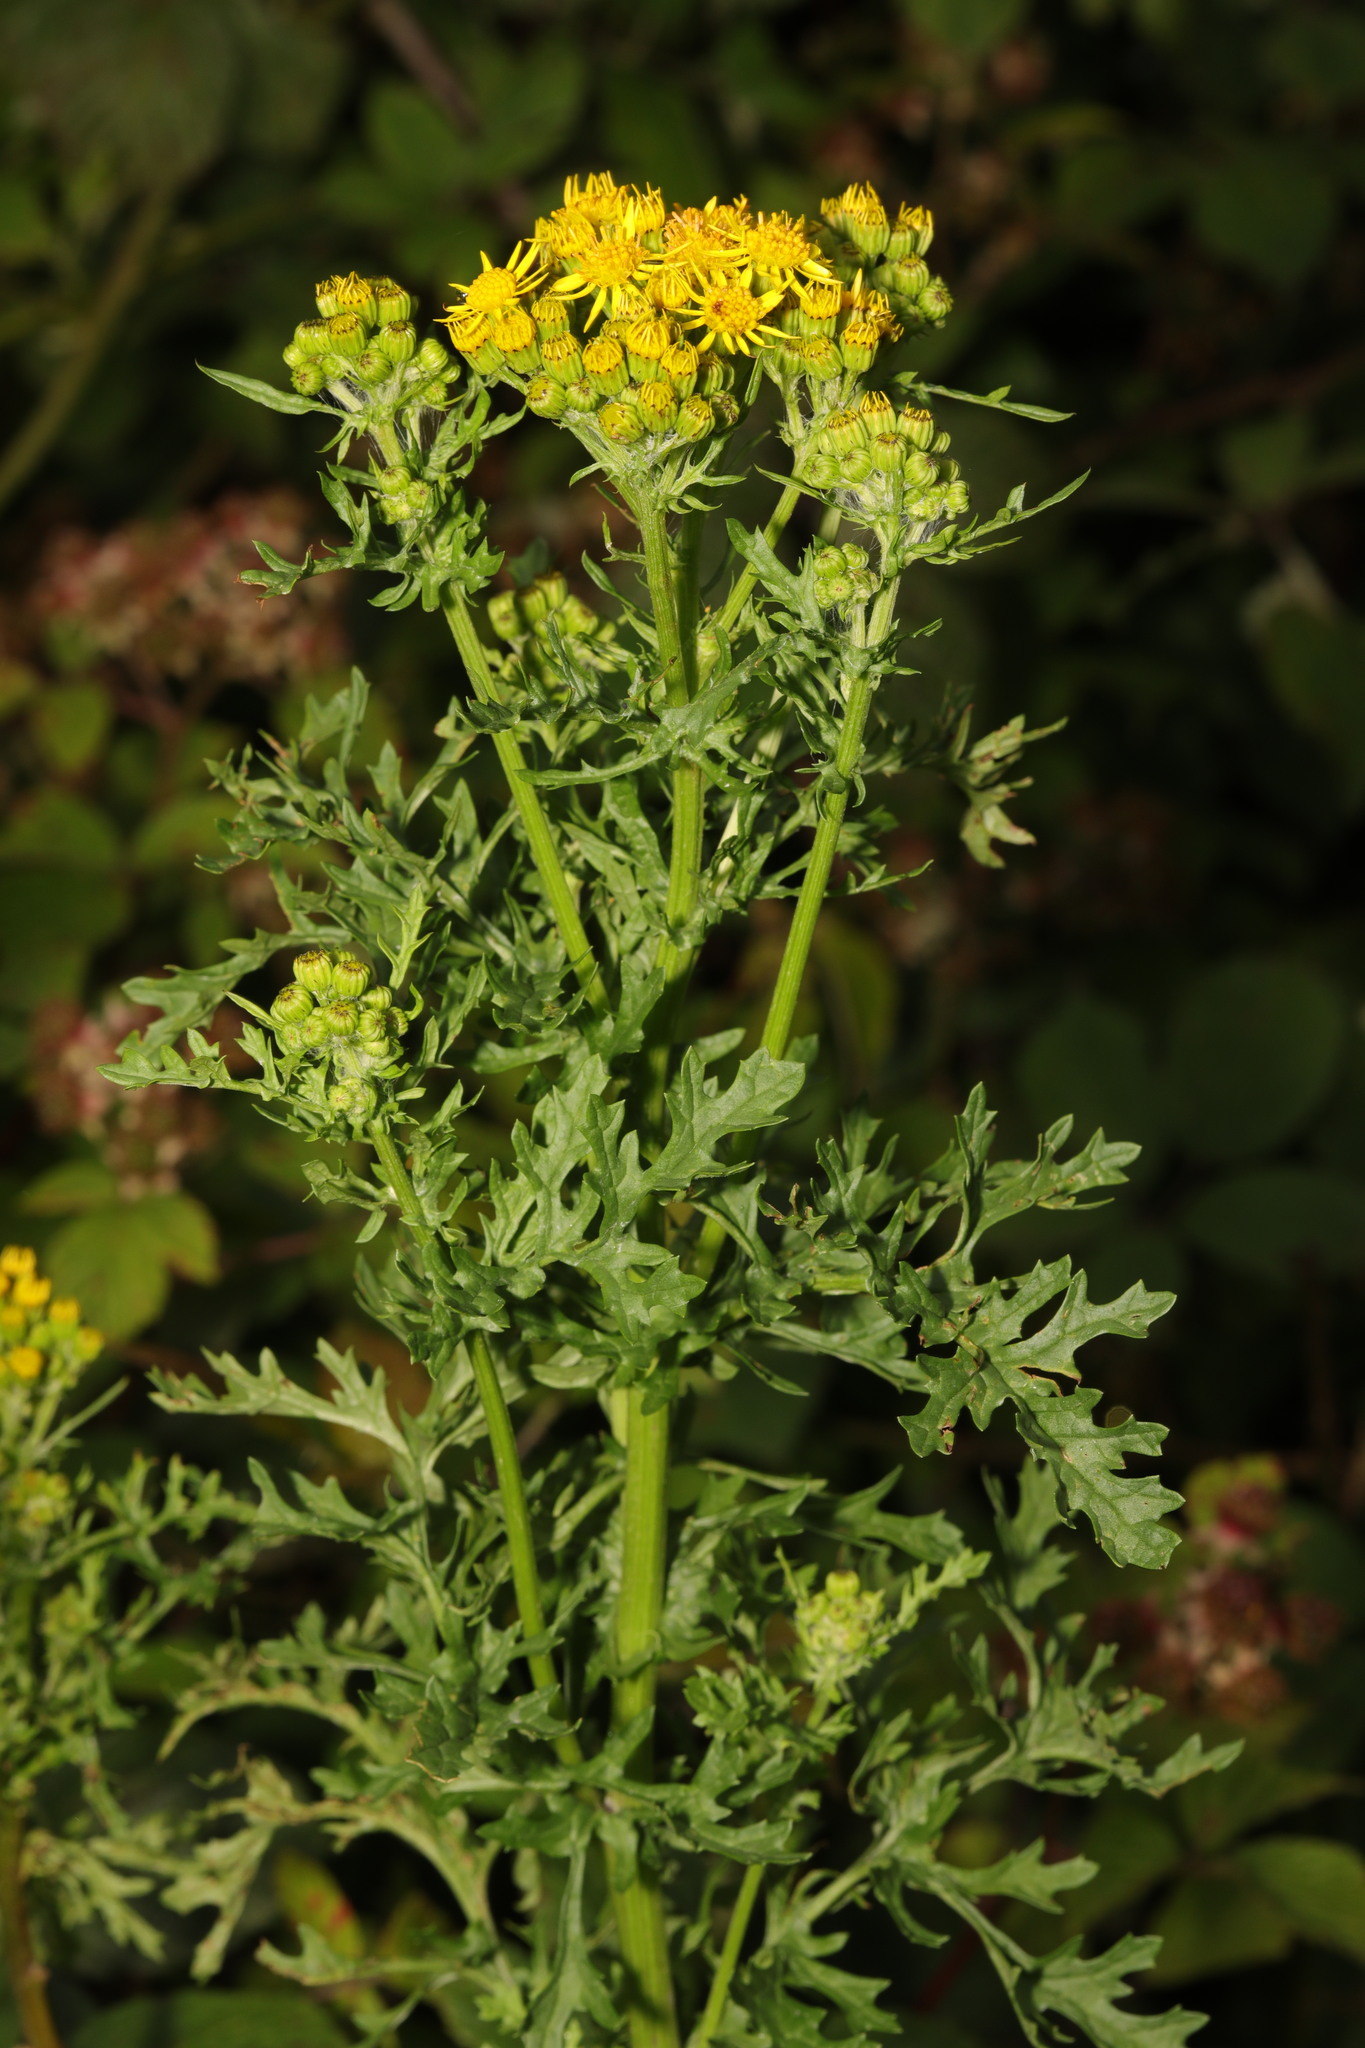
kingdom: Plantae
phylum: Tracheophyta
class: Magnoliopsida
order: Asterales
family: Asteraceae
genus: Jacobaea
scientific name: Jacobaea vulgaris
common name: Stinking willie
